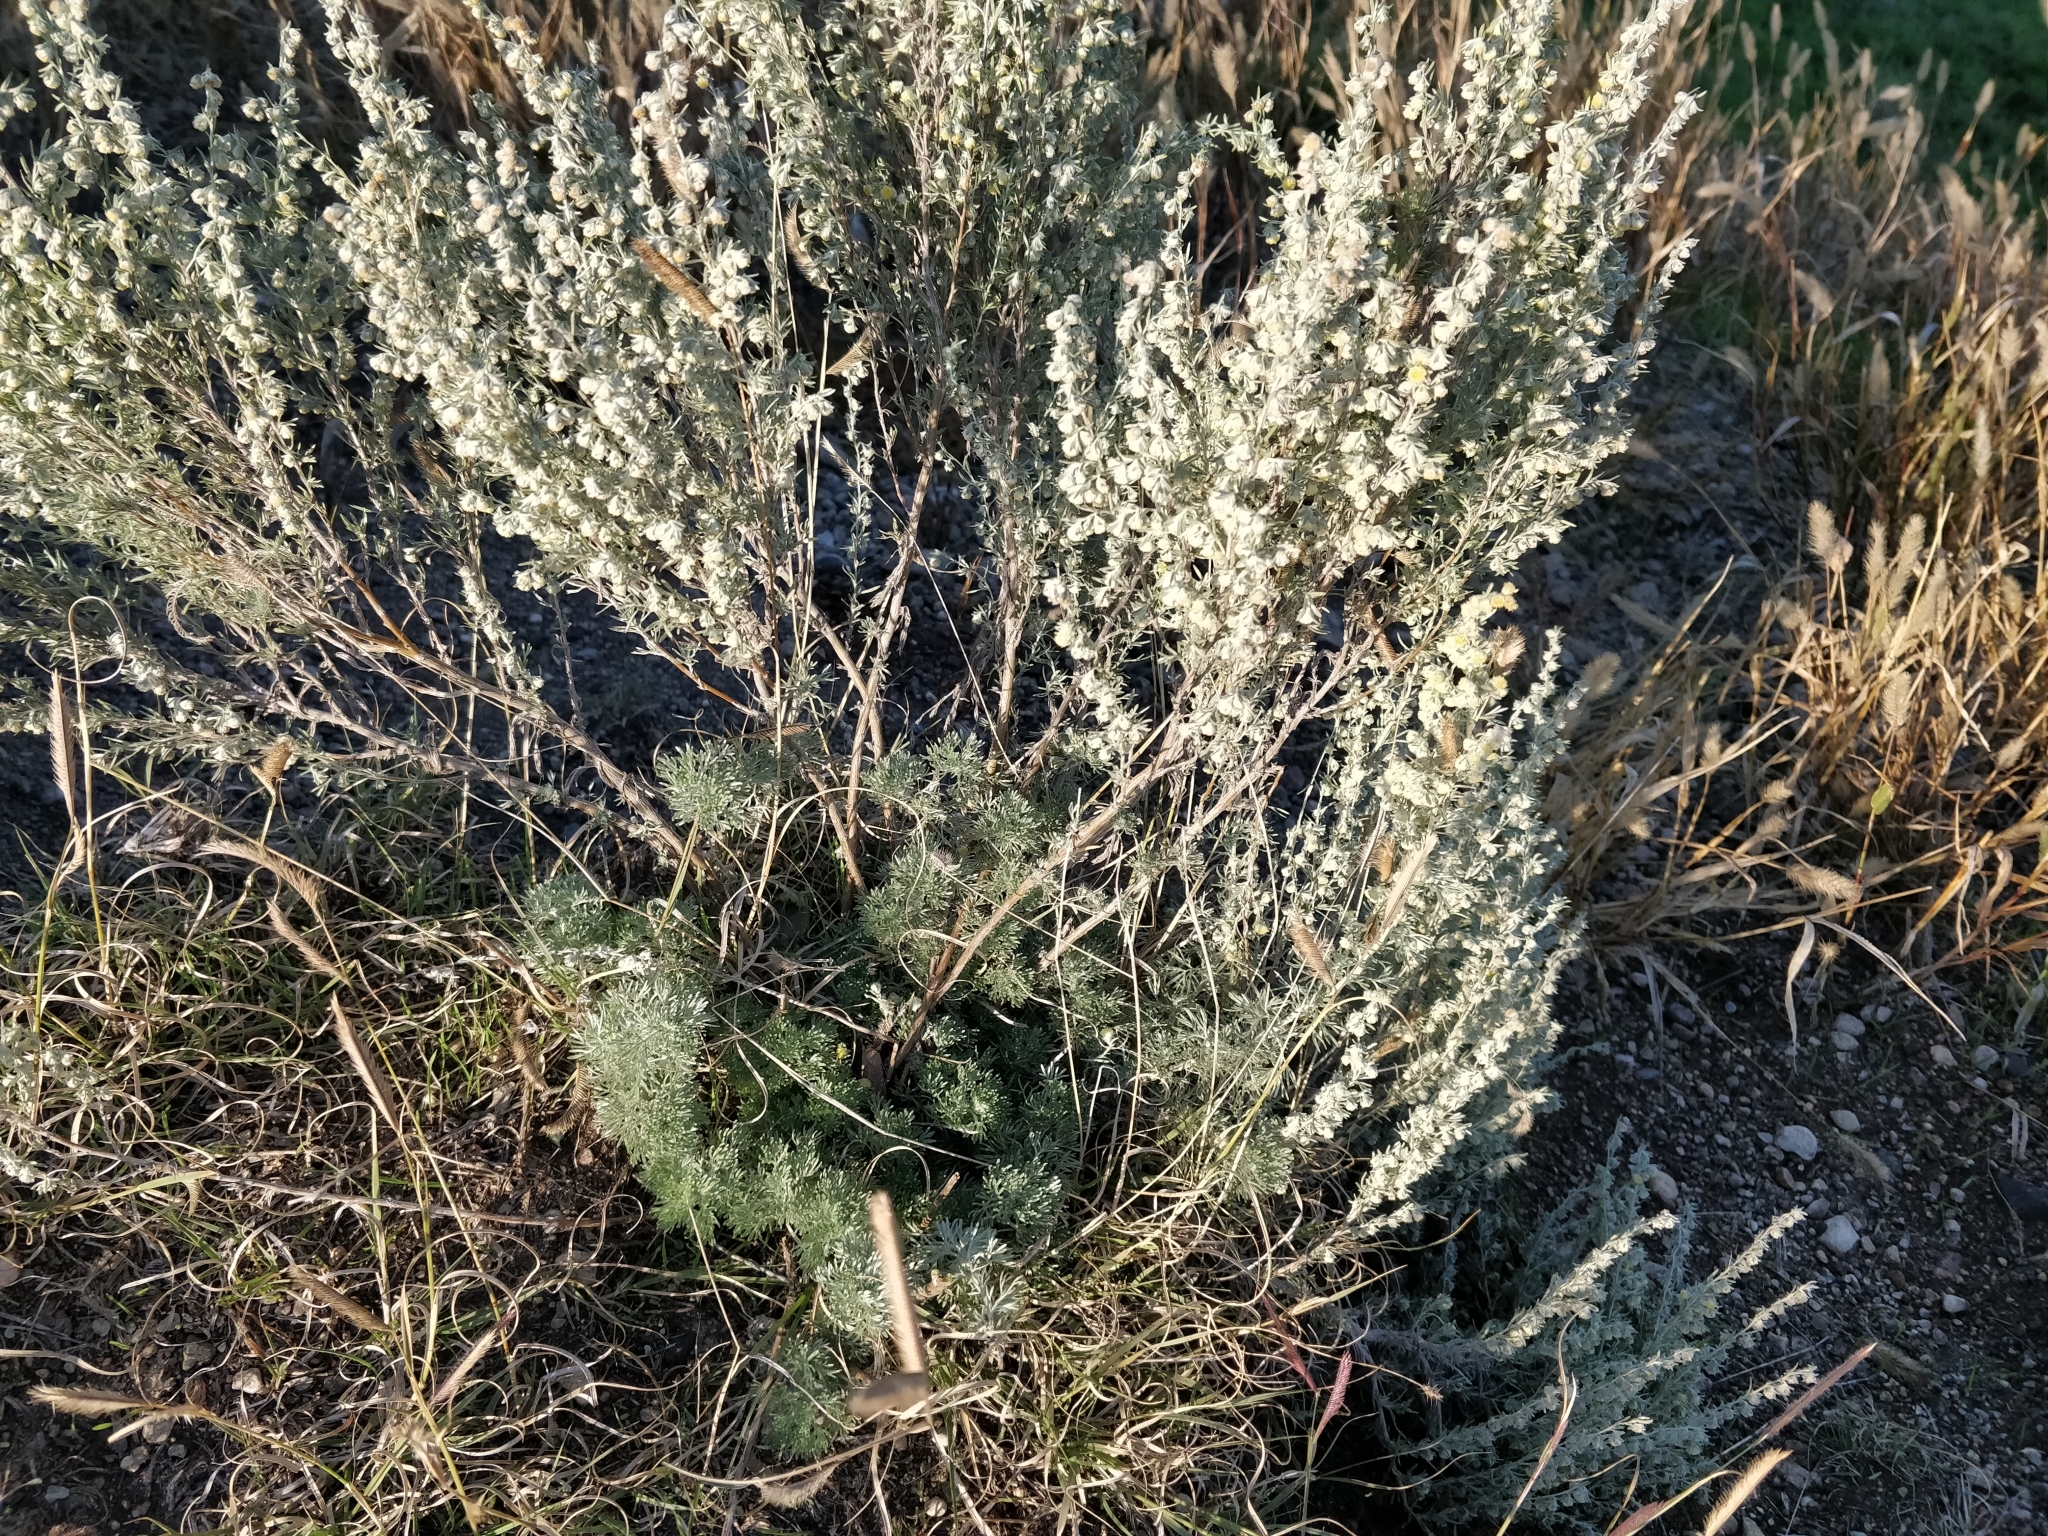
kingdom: Plantae
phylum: Tracheophyta
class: Magnoliopsida
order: Asterales
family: Asteraceae
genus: Artemisia
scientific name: Artemisia frigida
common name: Prairie sagewort
